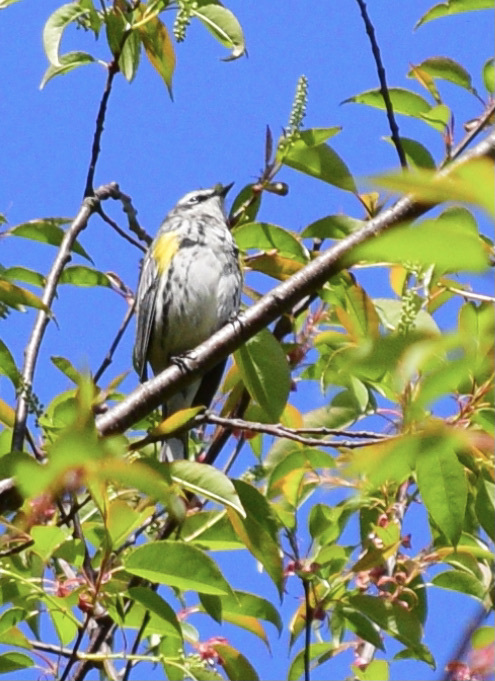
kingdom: Animalia
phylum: Chordata
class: Aves
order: Passeriformes
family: Parulidae
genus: Setophaga
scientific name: Setophaga coronata
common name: Myrtle warbler
